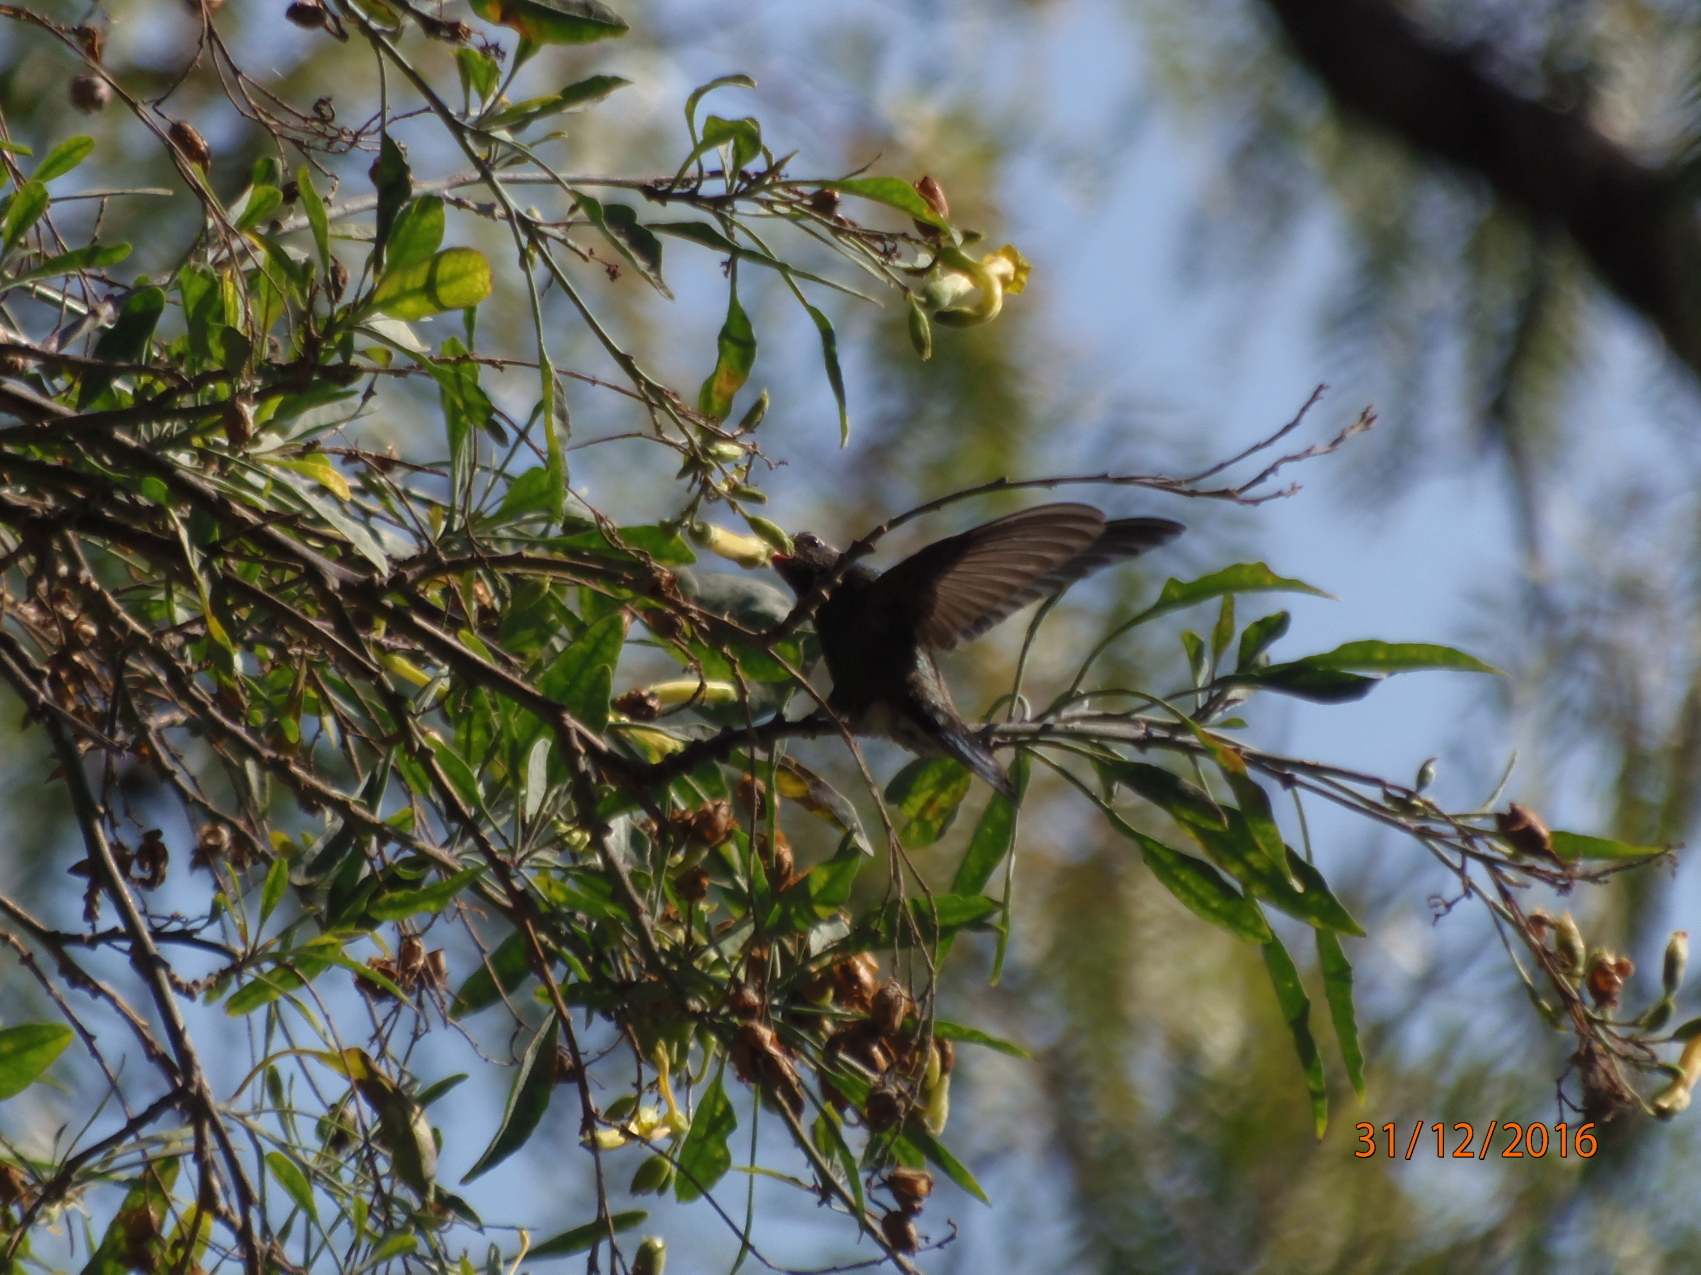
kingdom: Animalia
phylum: Chordata
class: Aves
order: Apodiformes
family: Trochilidae
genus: Cynanthus
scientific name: Cynanthus latirostris
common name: Broad-billed hummingbird
